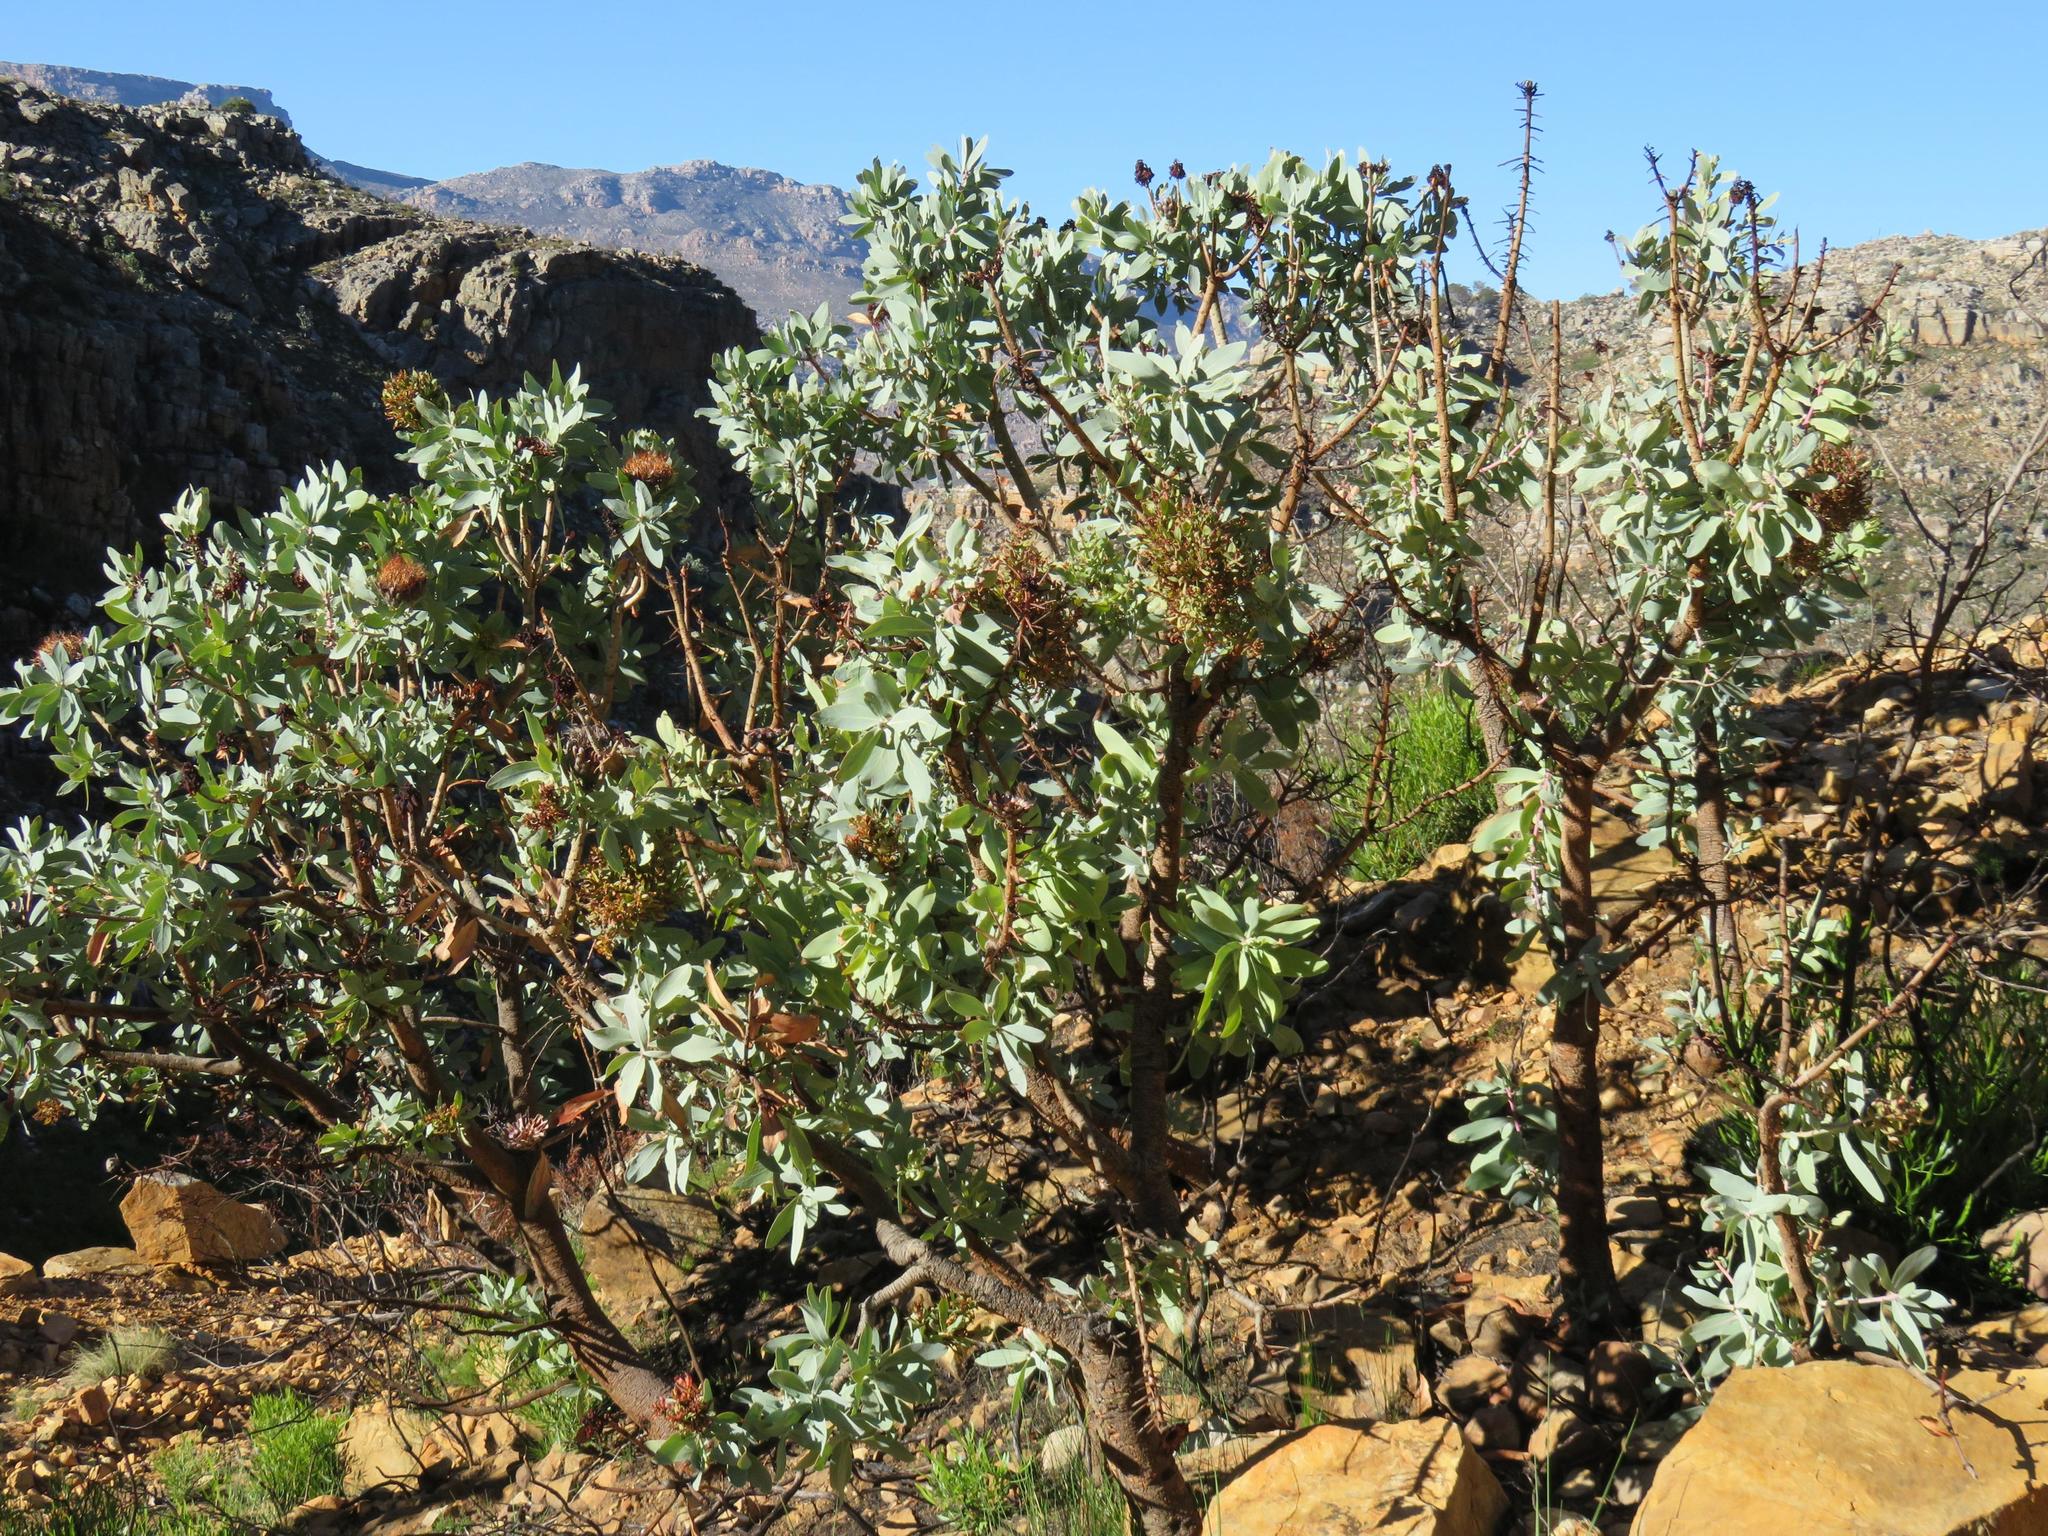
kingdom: Plantae
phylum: Tracheophyta
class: Magnoliopsida
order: Proteales
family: Proteaceae
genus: Protea
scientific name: Protea nitida
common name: Tree protea
